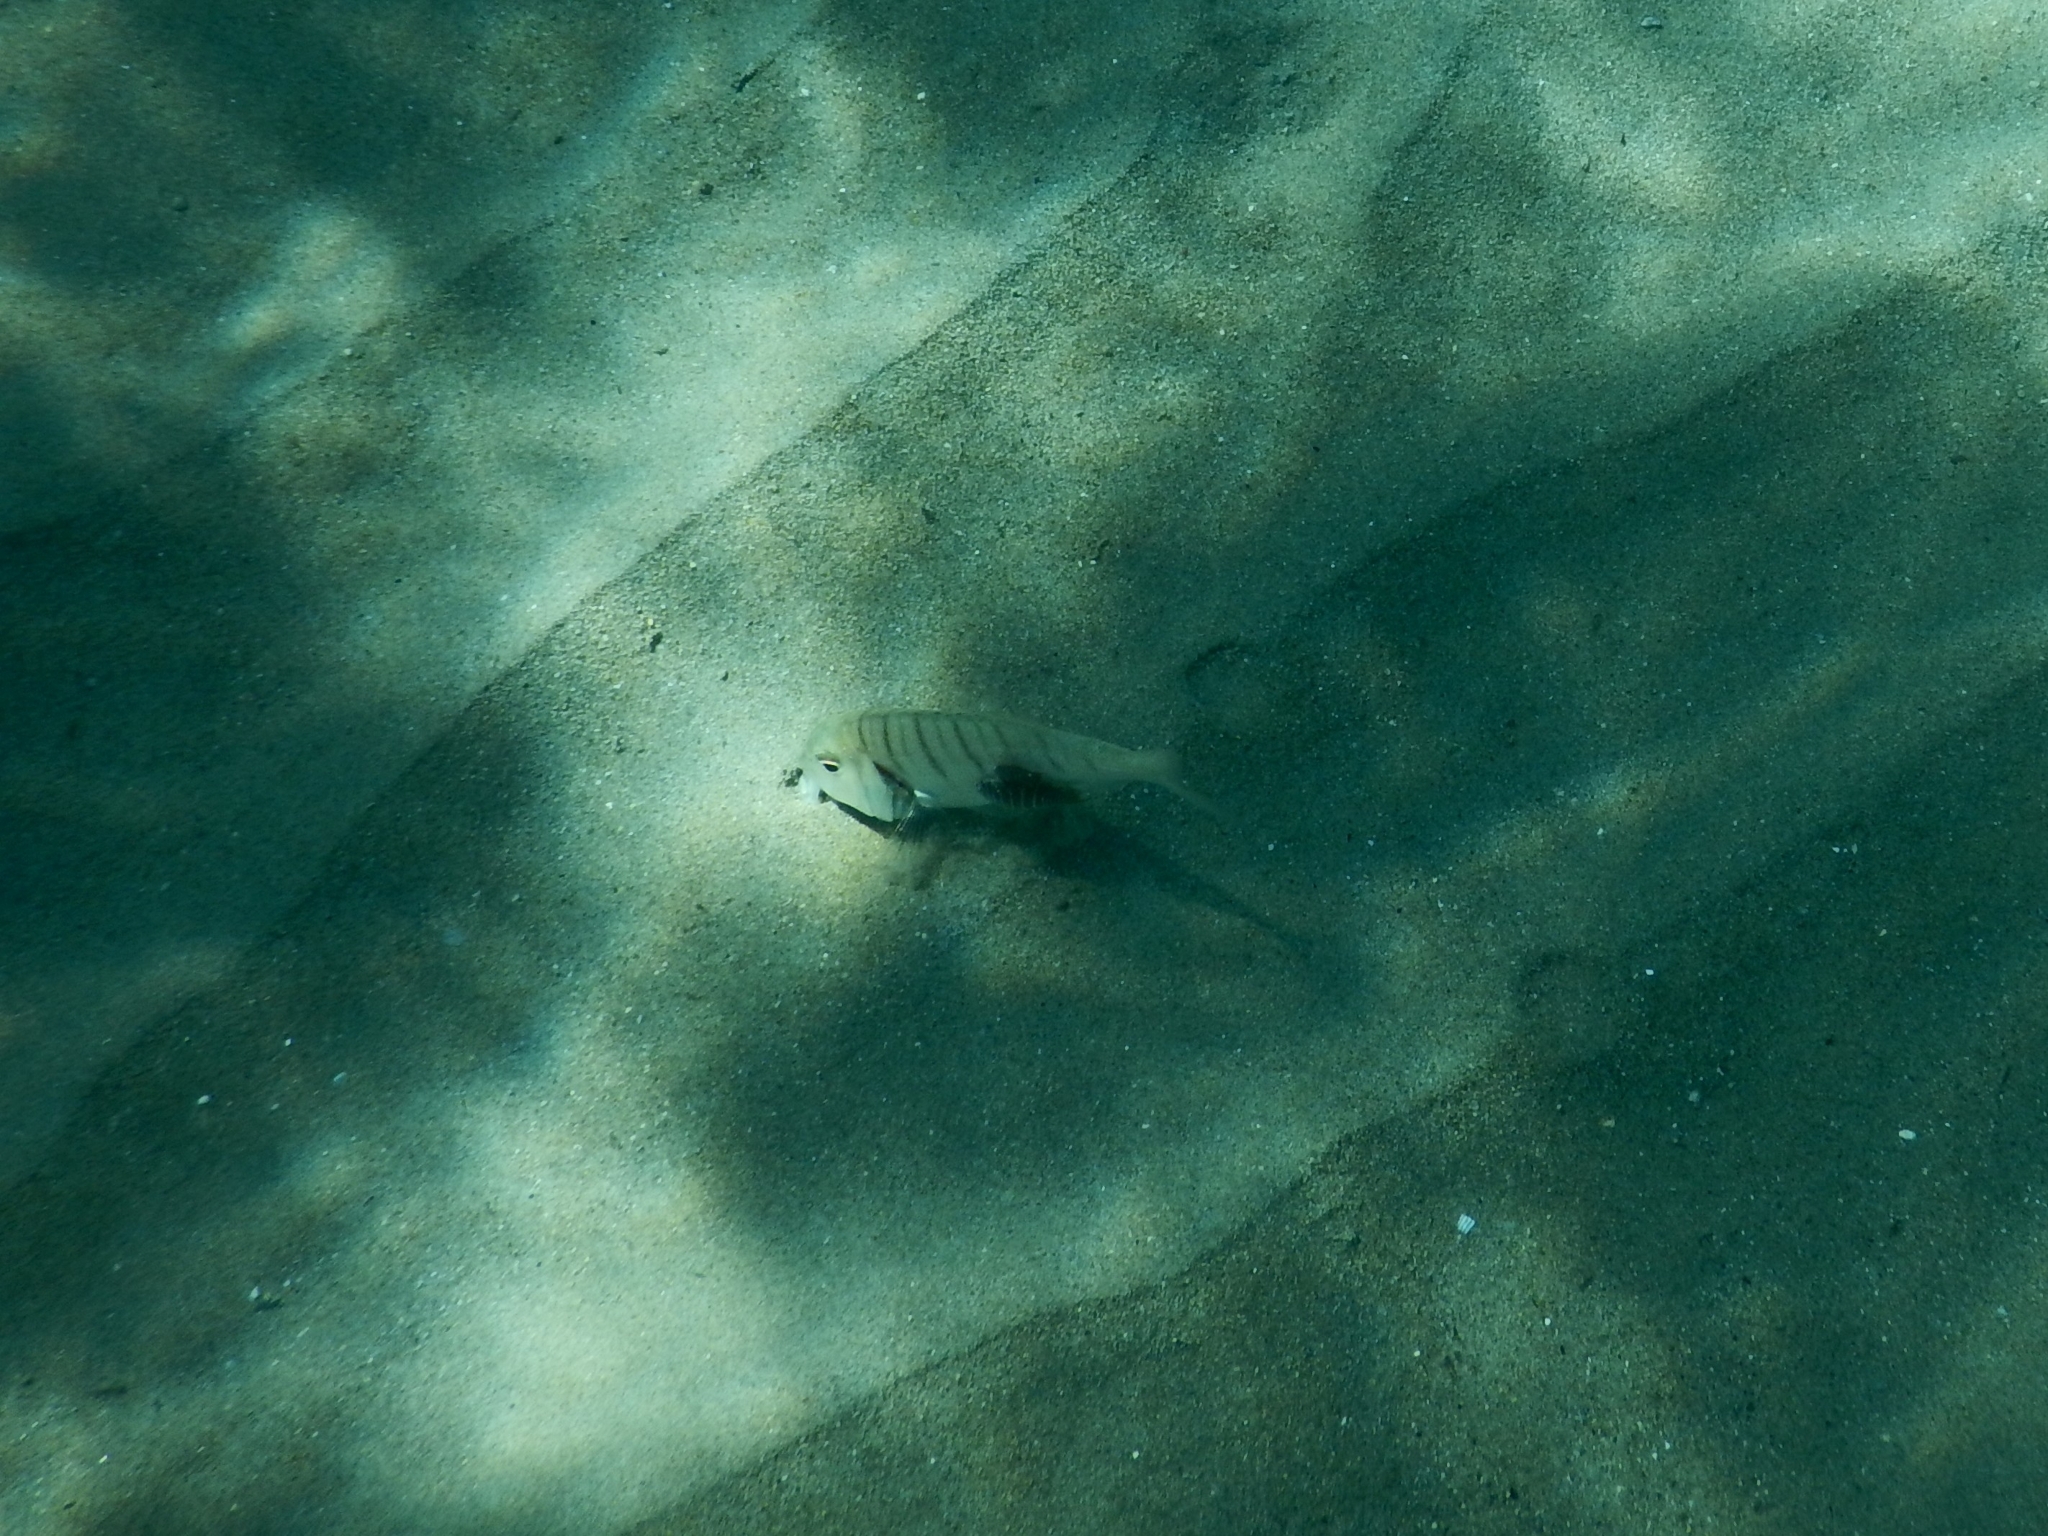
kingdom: Animalia
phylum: Chordata
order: Perciformes
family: Sparidae
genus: Lithognathus
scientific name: Lithognathus mormyrus
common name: Sand steenbras
